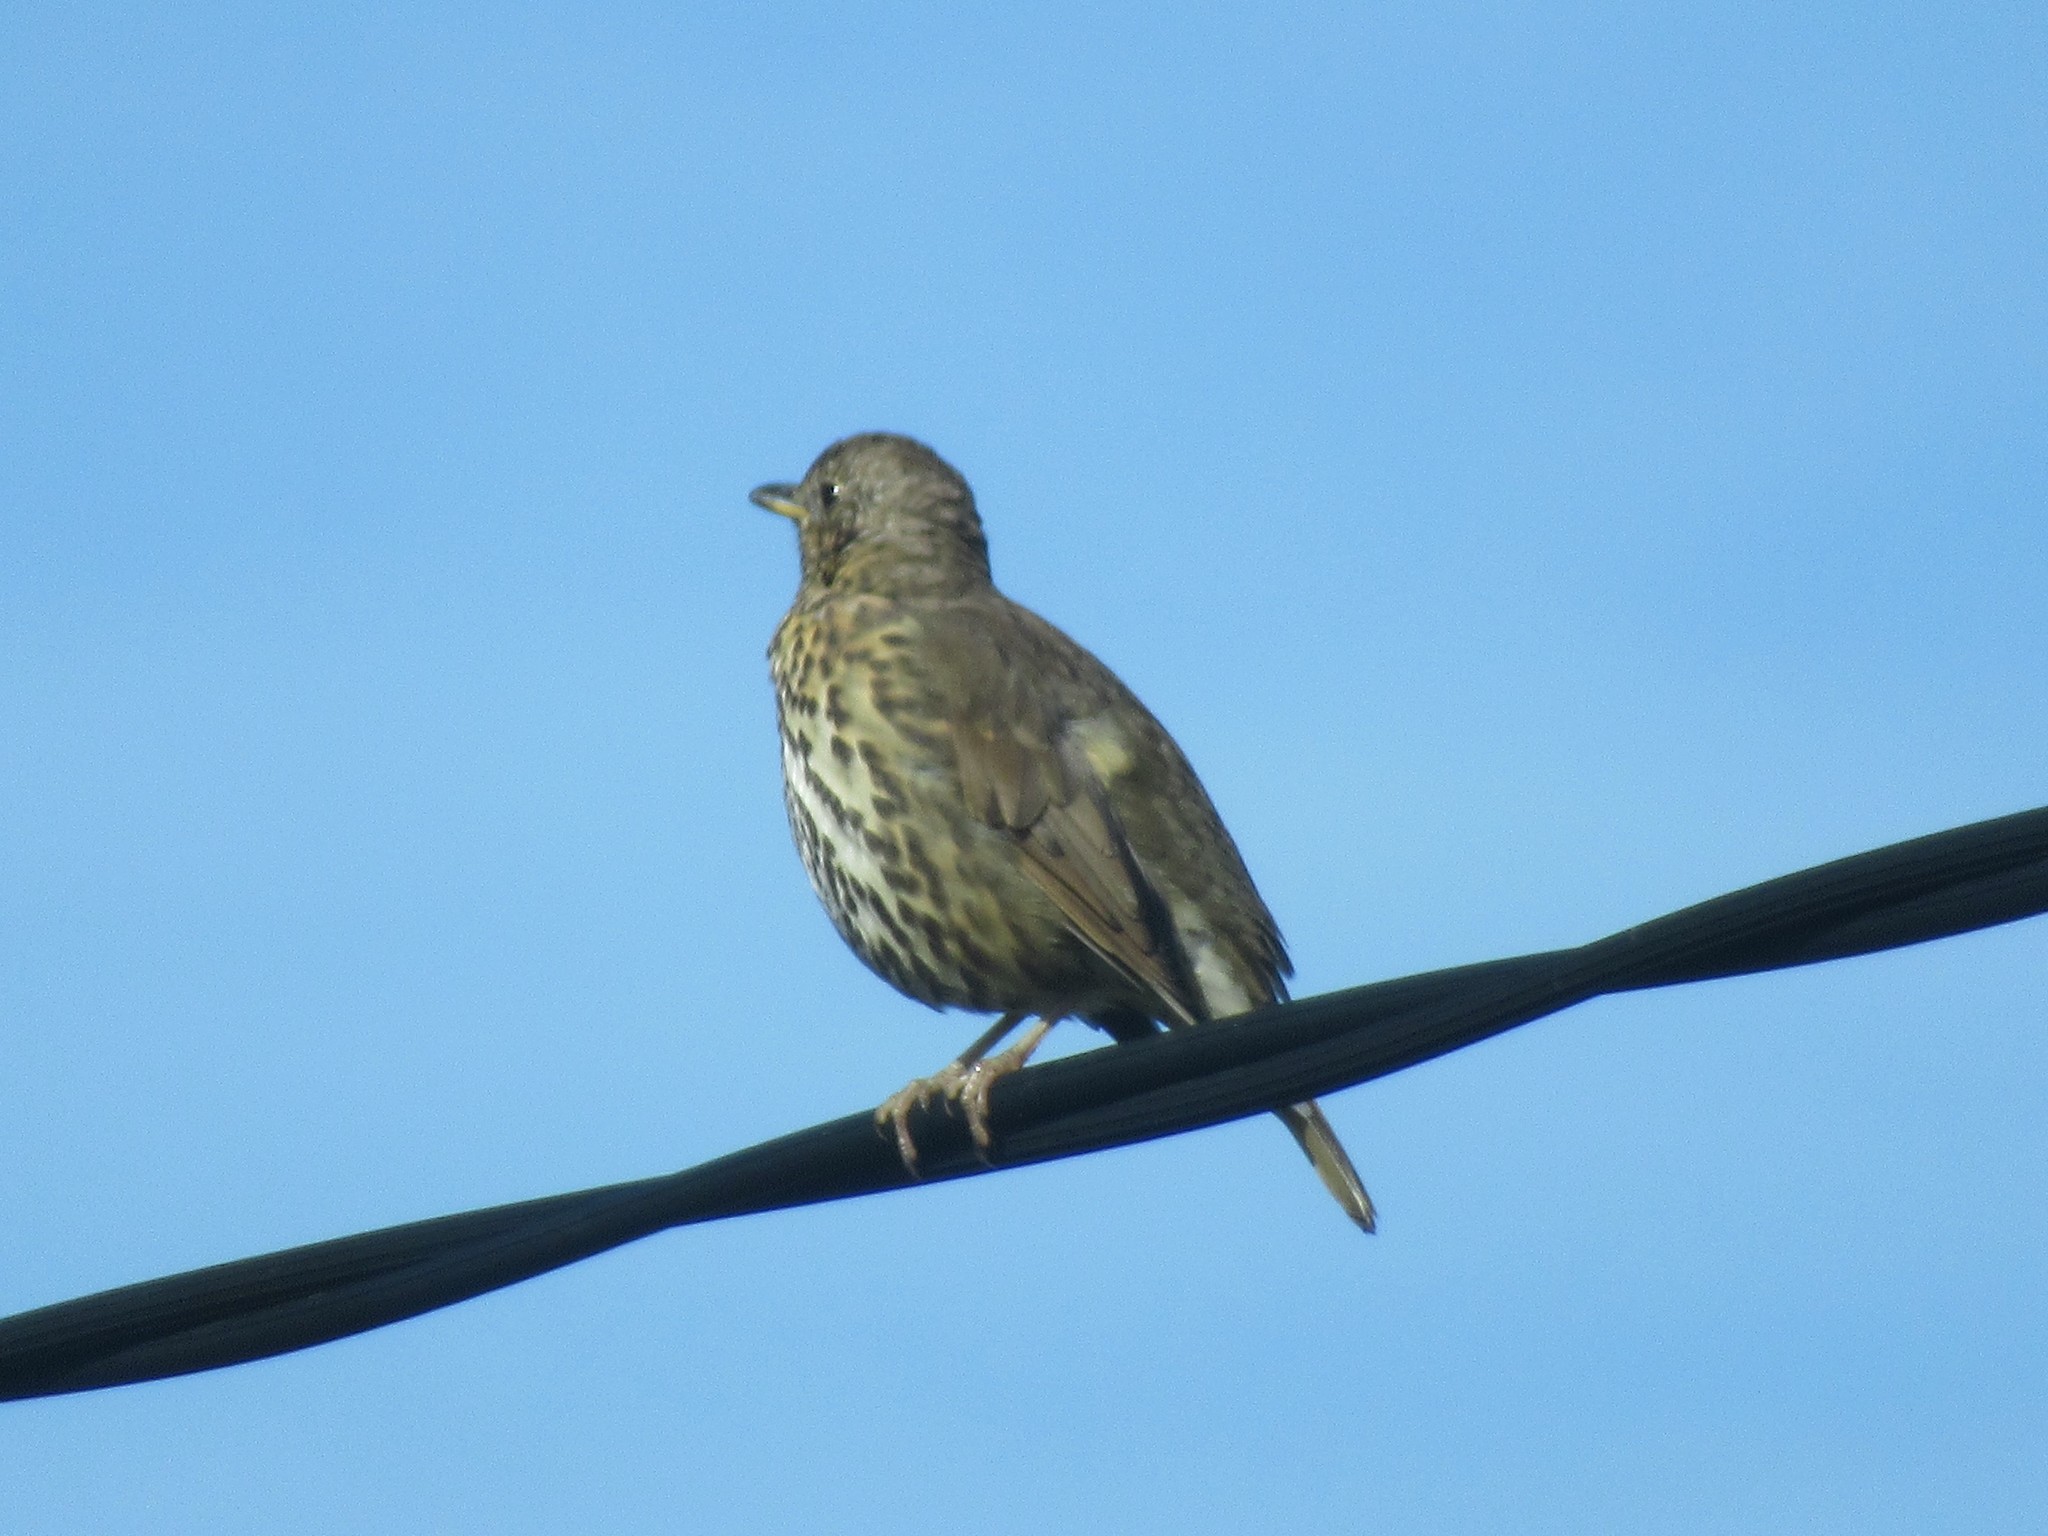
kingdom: Animalia
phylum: Chordata
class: Aves
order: Passeriformes
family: Turdidae
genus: Turdus
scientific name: Turdus philomelos
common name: Song thrush
